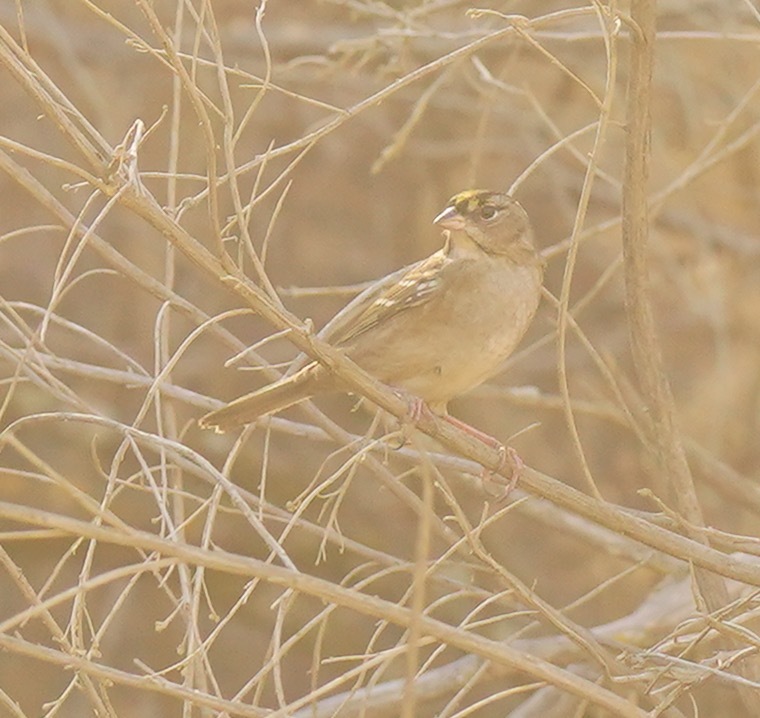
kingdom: Animalia
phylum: Chordata
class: Aves
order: Passeriformes
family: Passerellidae
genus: Zonotrichia
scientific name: Zonotrichia atricapilla
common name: Golden-crowned sparrow
